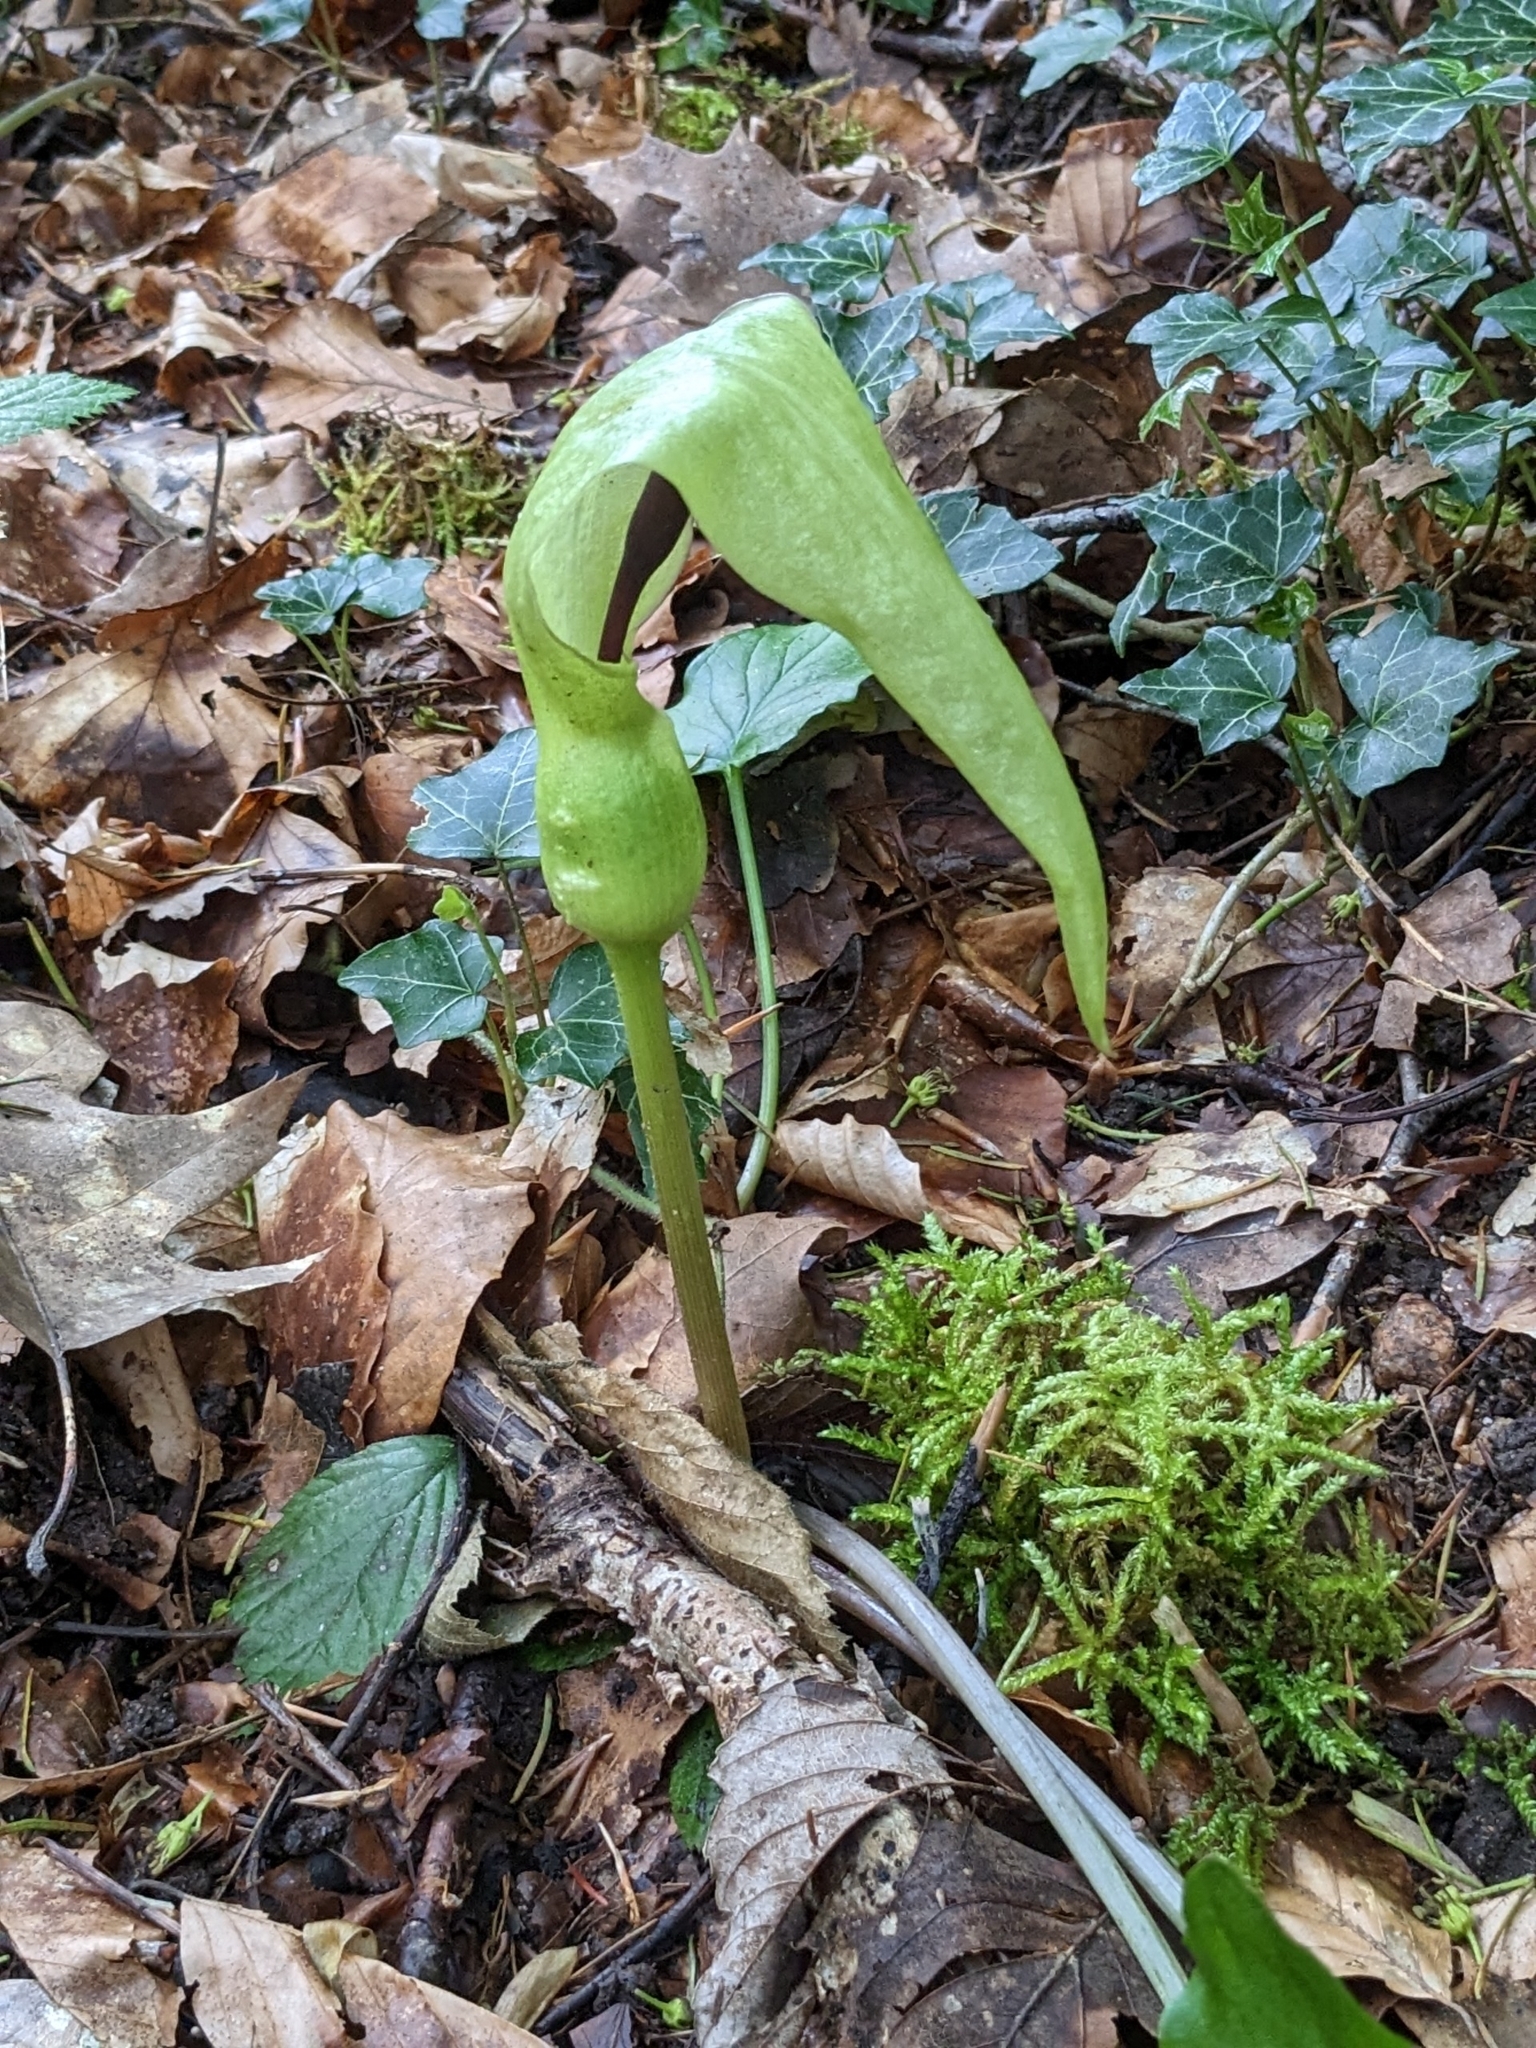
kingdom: Plantae
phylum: Tracheophyta
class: Liliopsida
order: Alismatales
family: Araceae
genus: Arum
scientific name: Arum maculatum
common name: Lords-and-ladies
